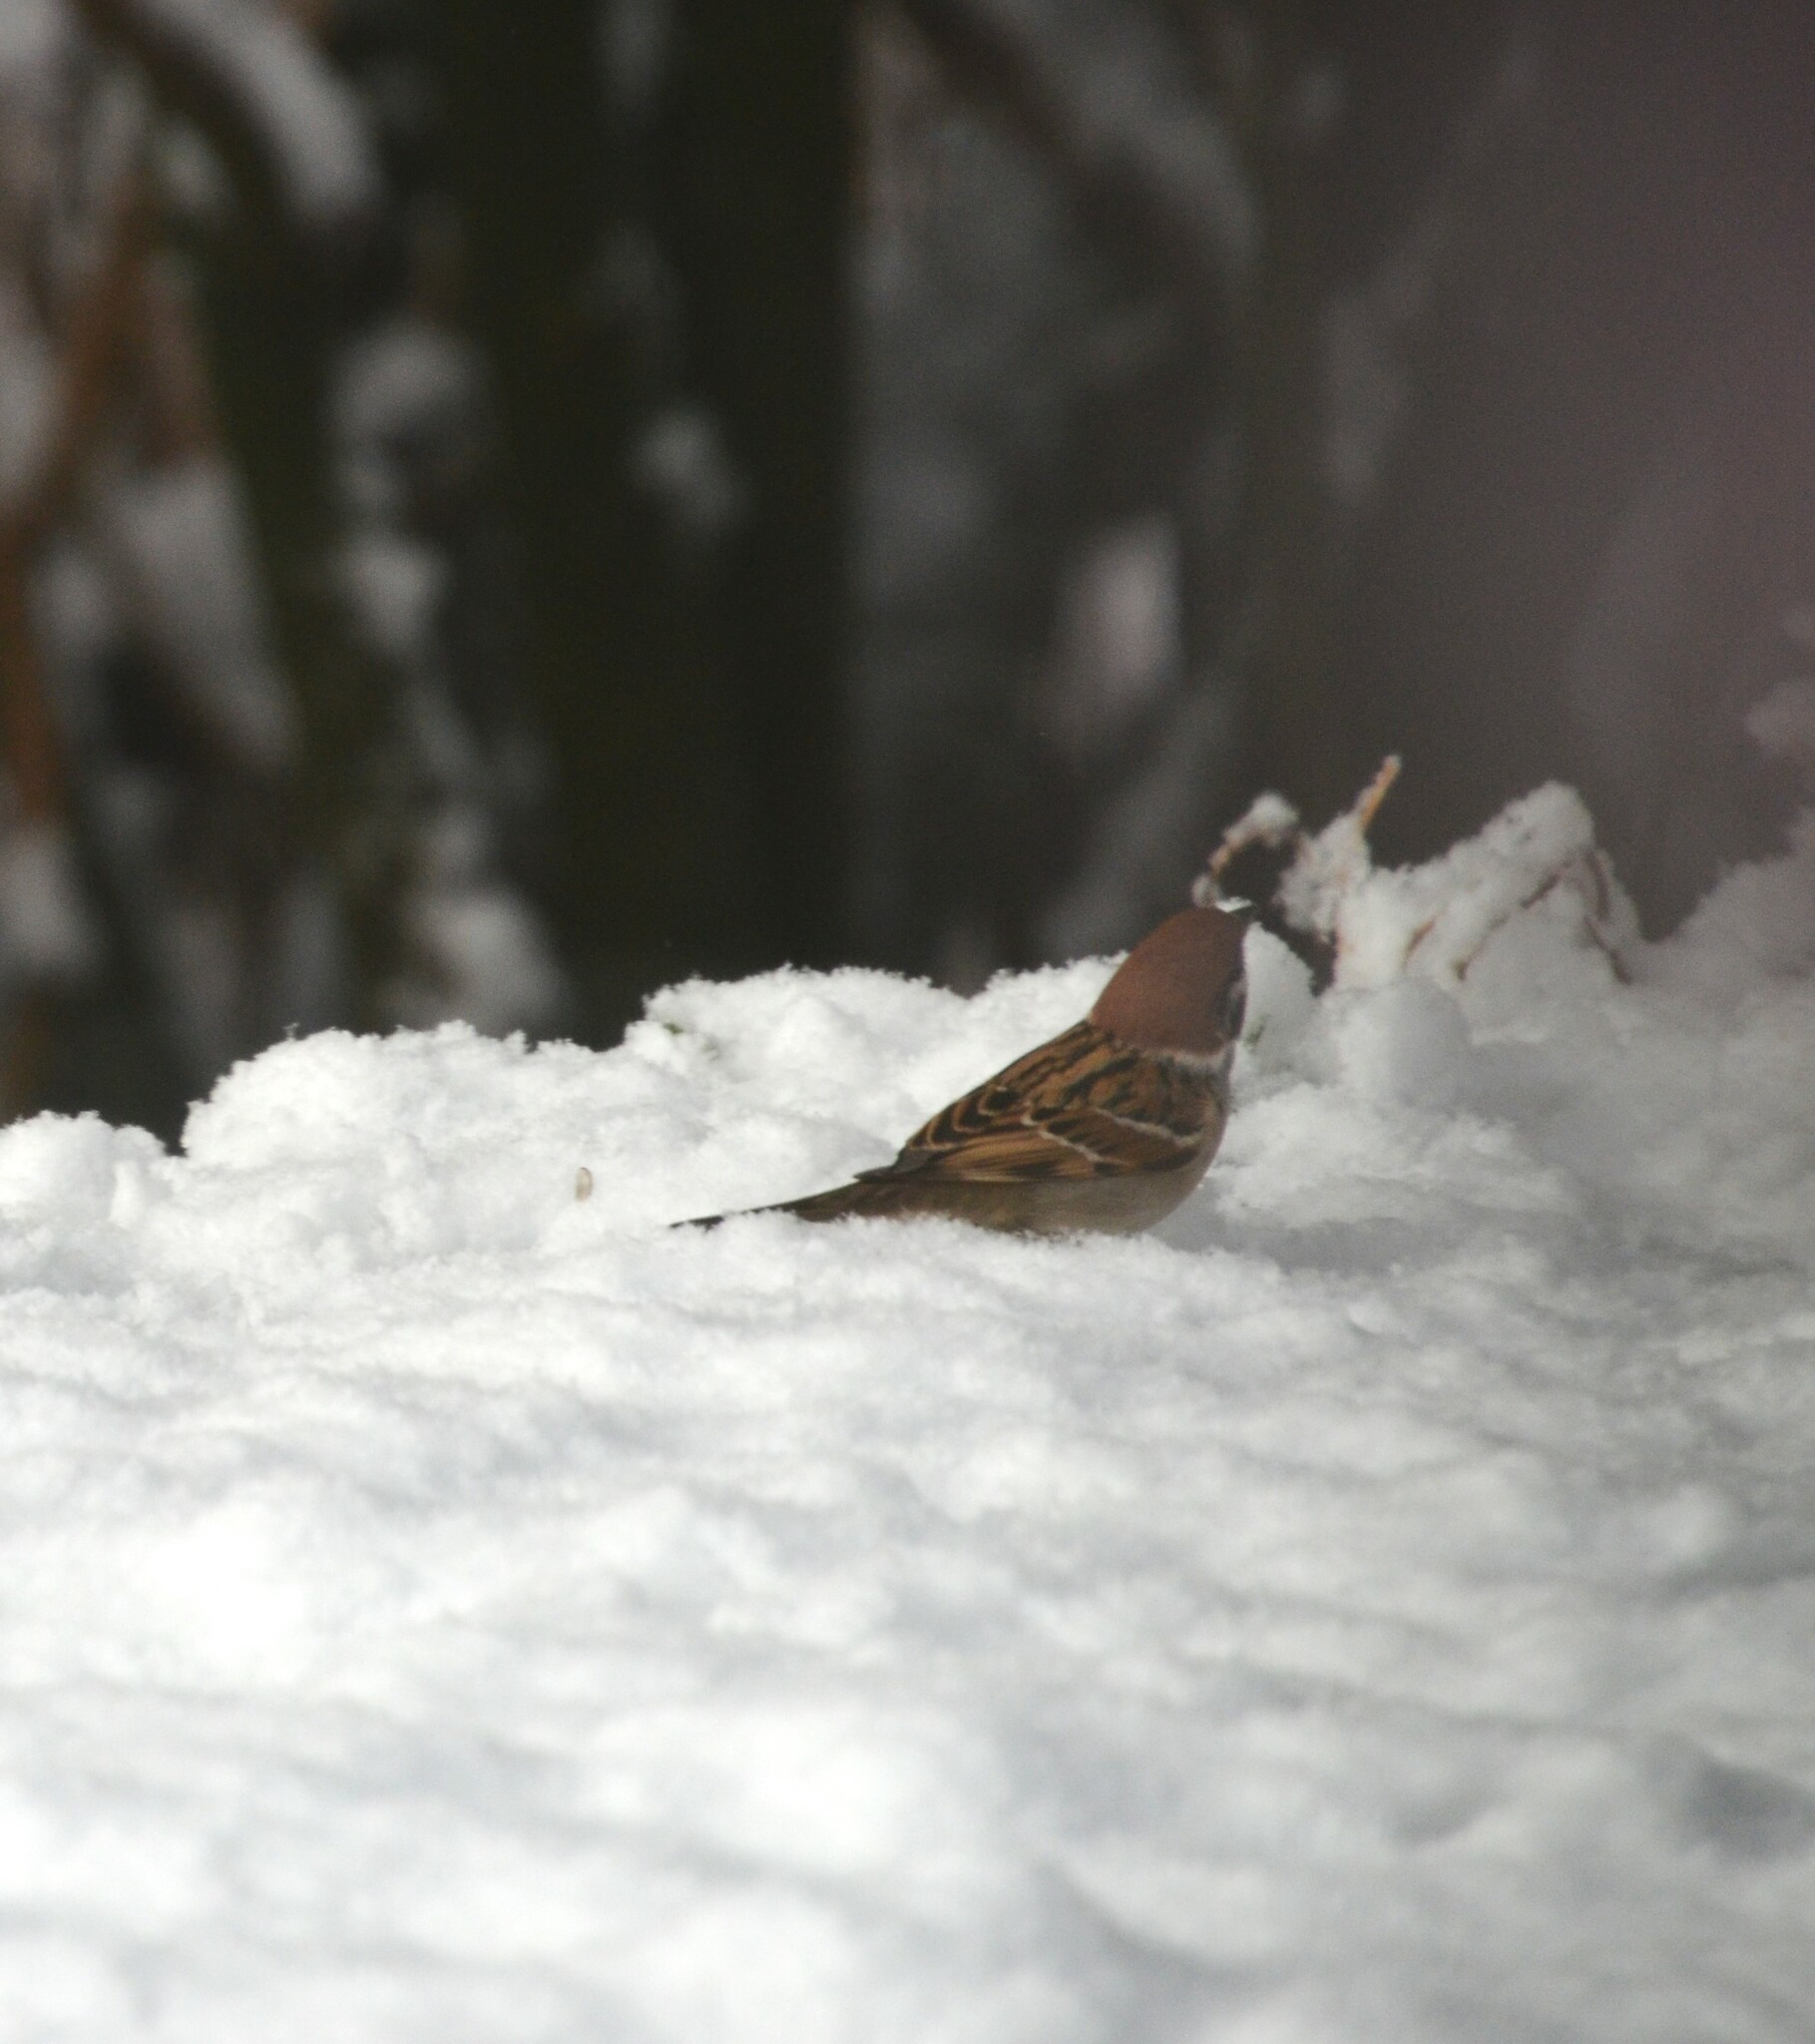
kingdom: Animalia
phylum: Chordata
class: Aves
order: Passeriformes
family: Passeridae
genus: Passer
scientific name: Passer montanus
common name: Eurasian tree sparrow
